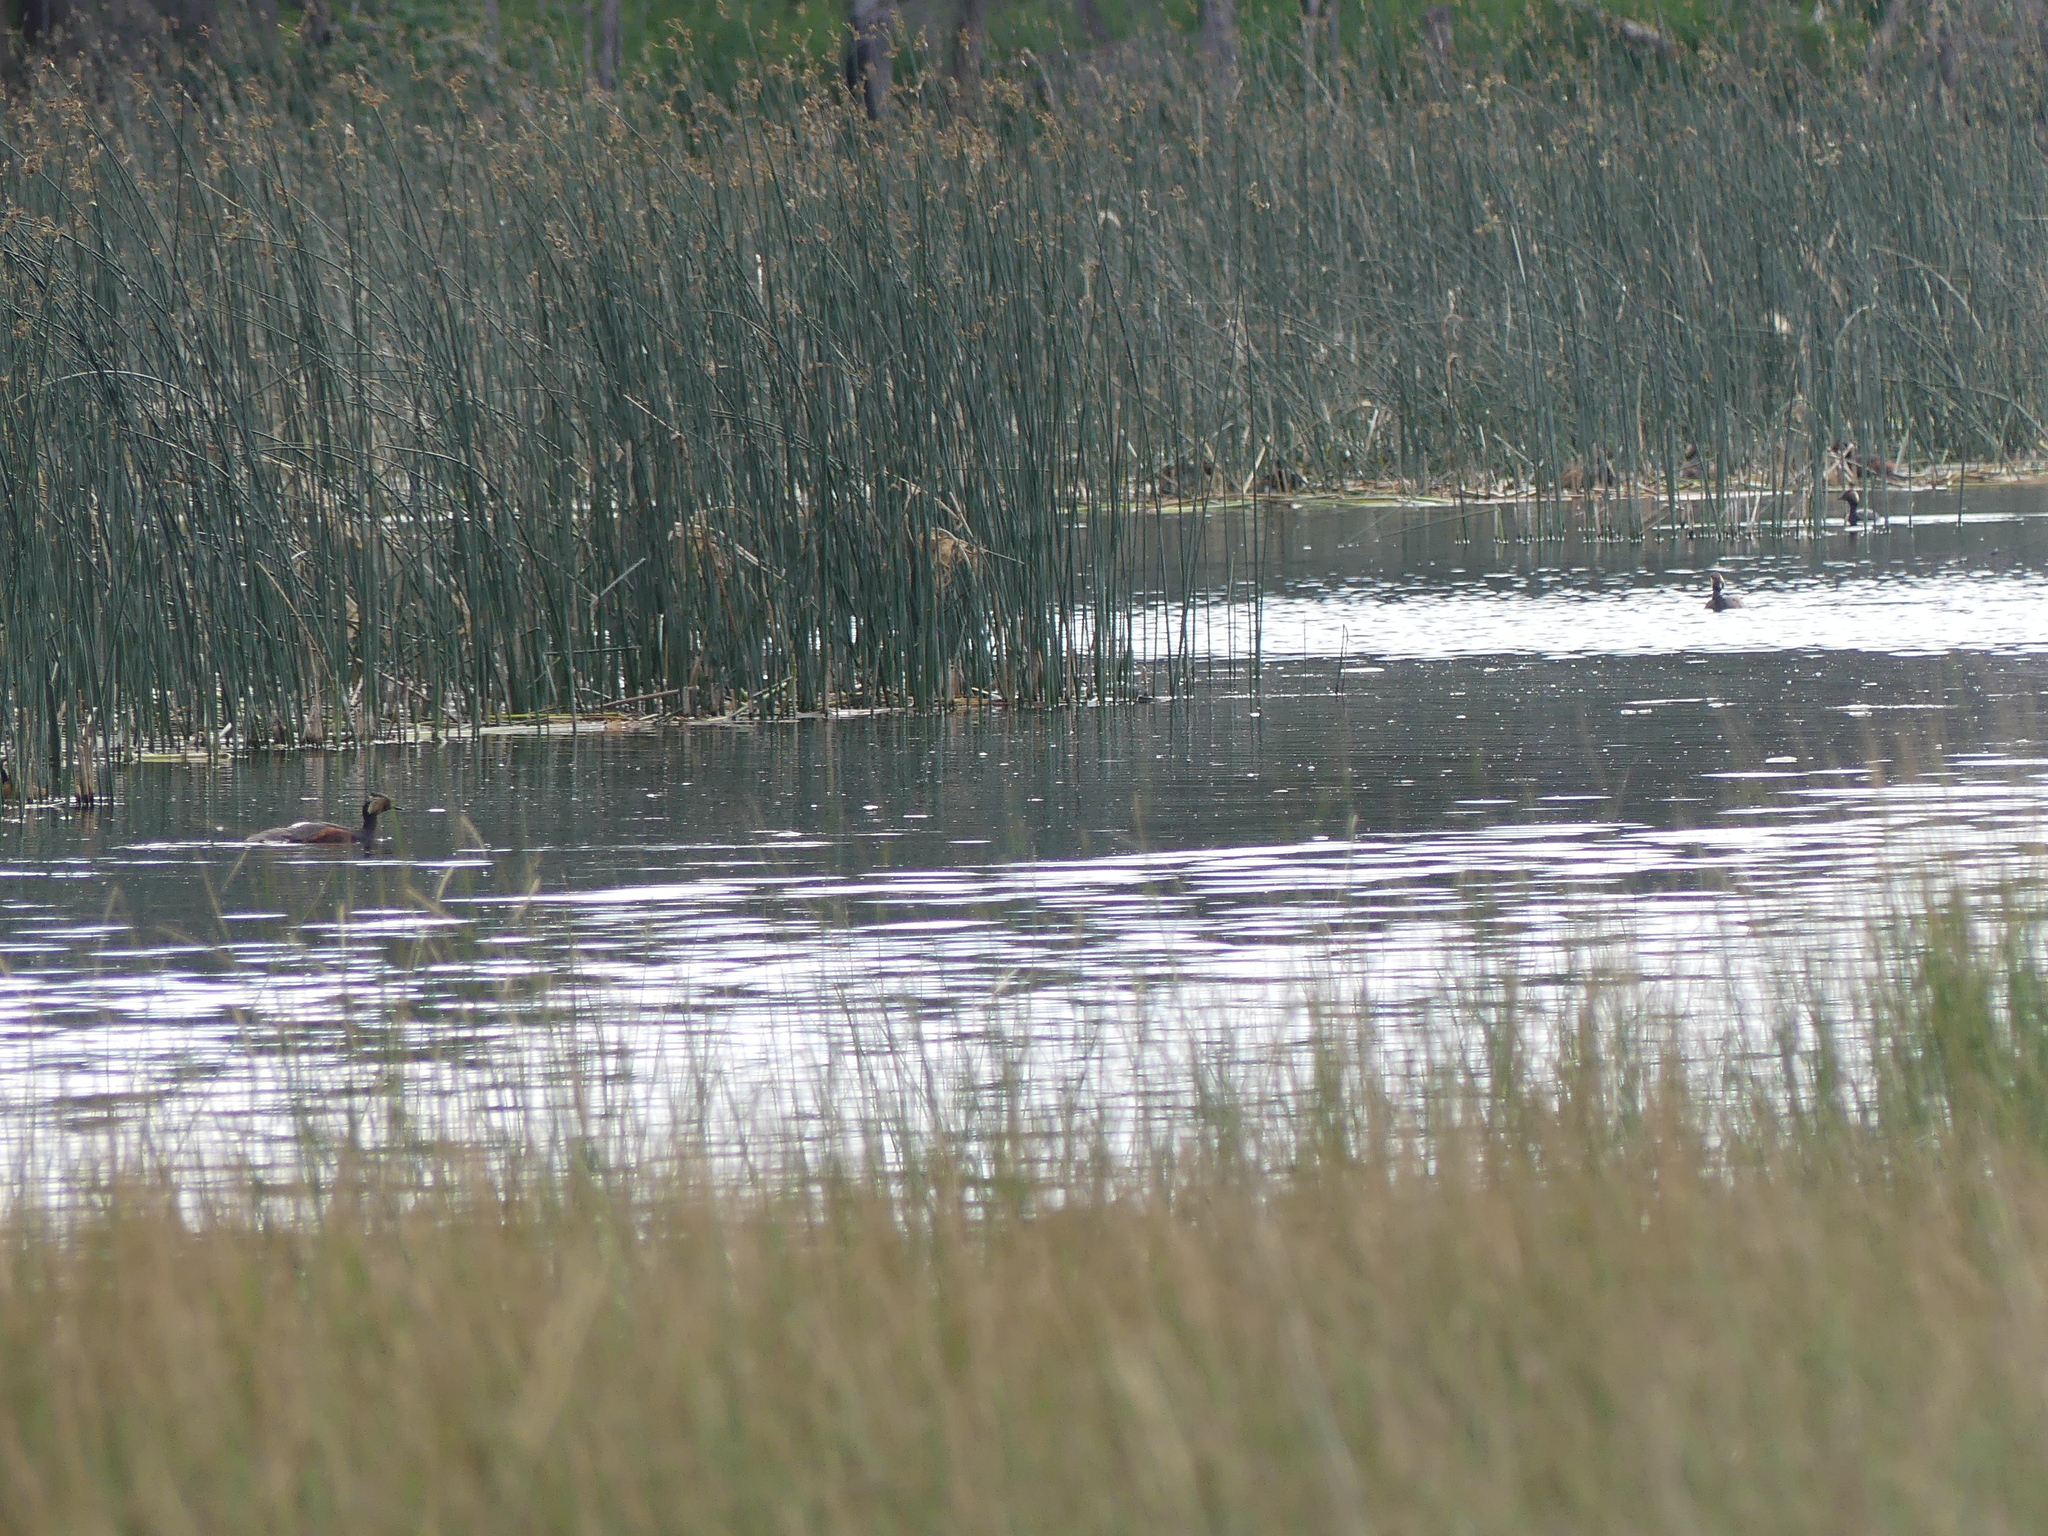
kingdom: Animalia
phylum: Chordata
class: Aves
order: Podicipediformes
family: Podicipedidae
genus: Podiceps
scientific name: Podiceps nigricollis
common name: Black-necked grebe
